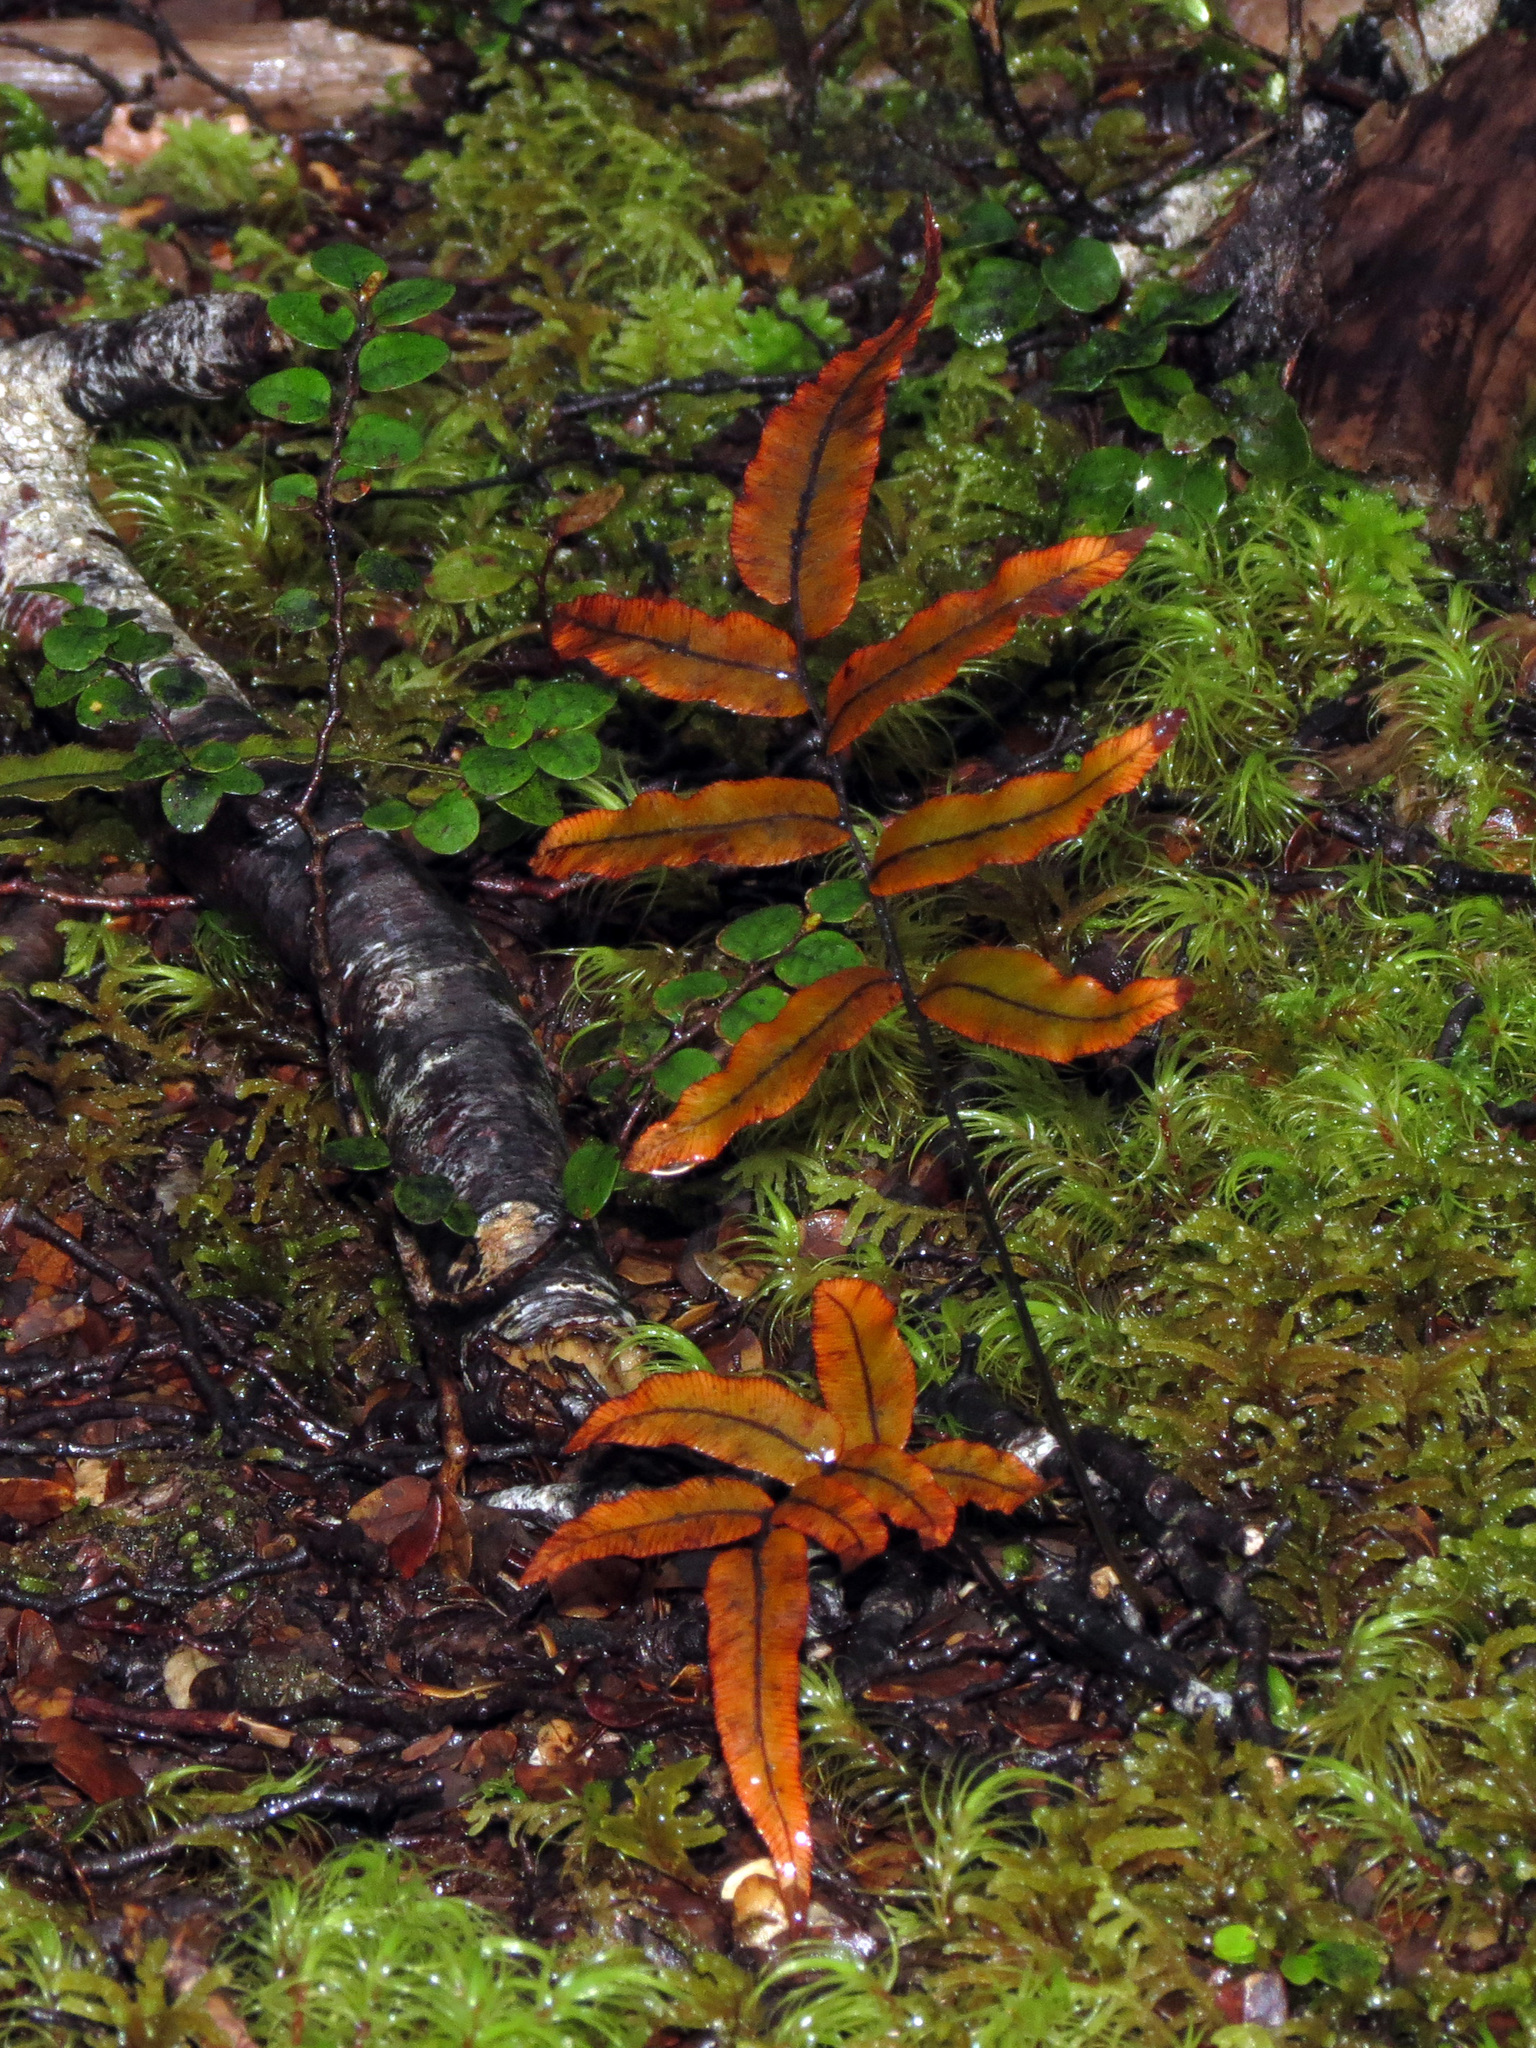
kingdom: Plantae
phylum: Tracheophyta
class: Polypodiopsida
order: Polypodiales
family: Blechnaceae
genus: Parablechnum
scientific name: Parablechnum procerum
